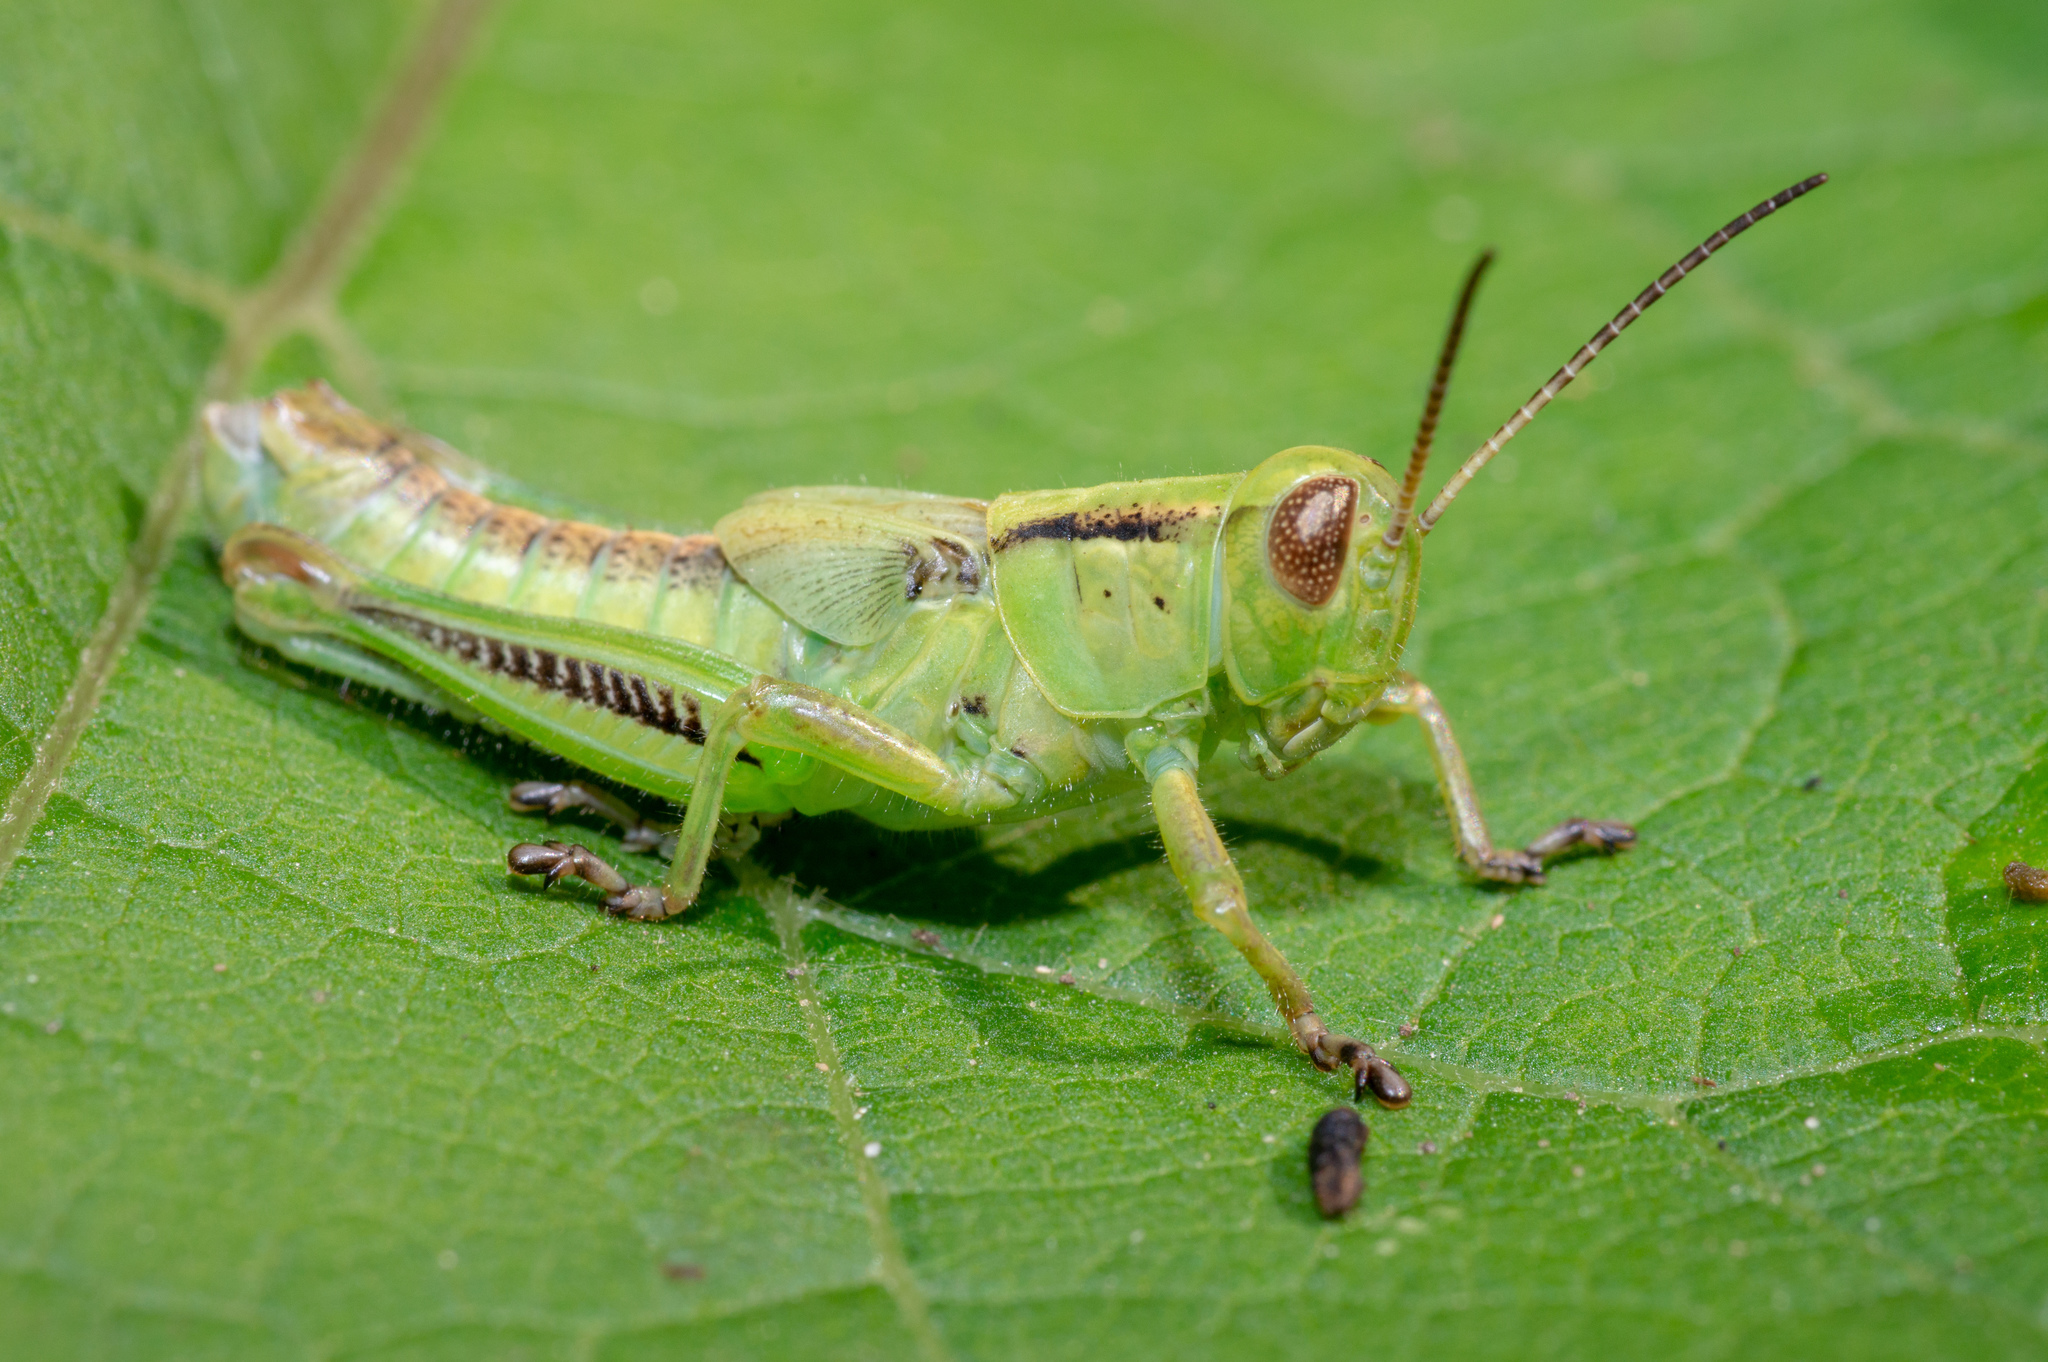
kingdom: Animalia
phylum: Arthropoda
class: Insecta
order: Orthoptera
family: Acrididae
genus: Melanoplus
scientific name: Melanoplus
